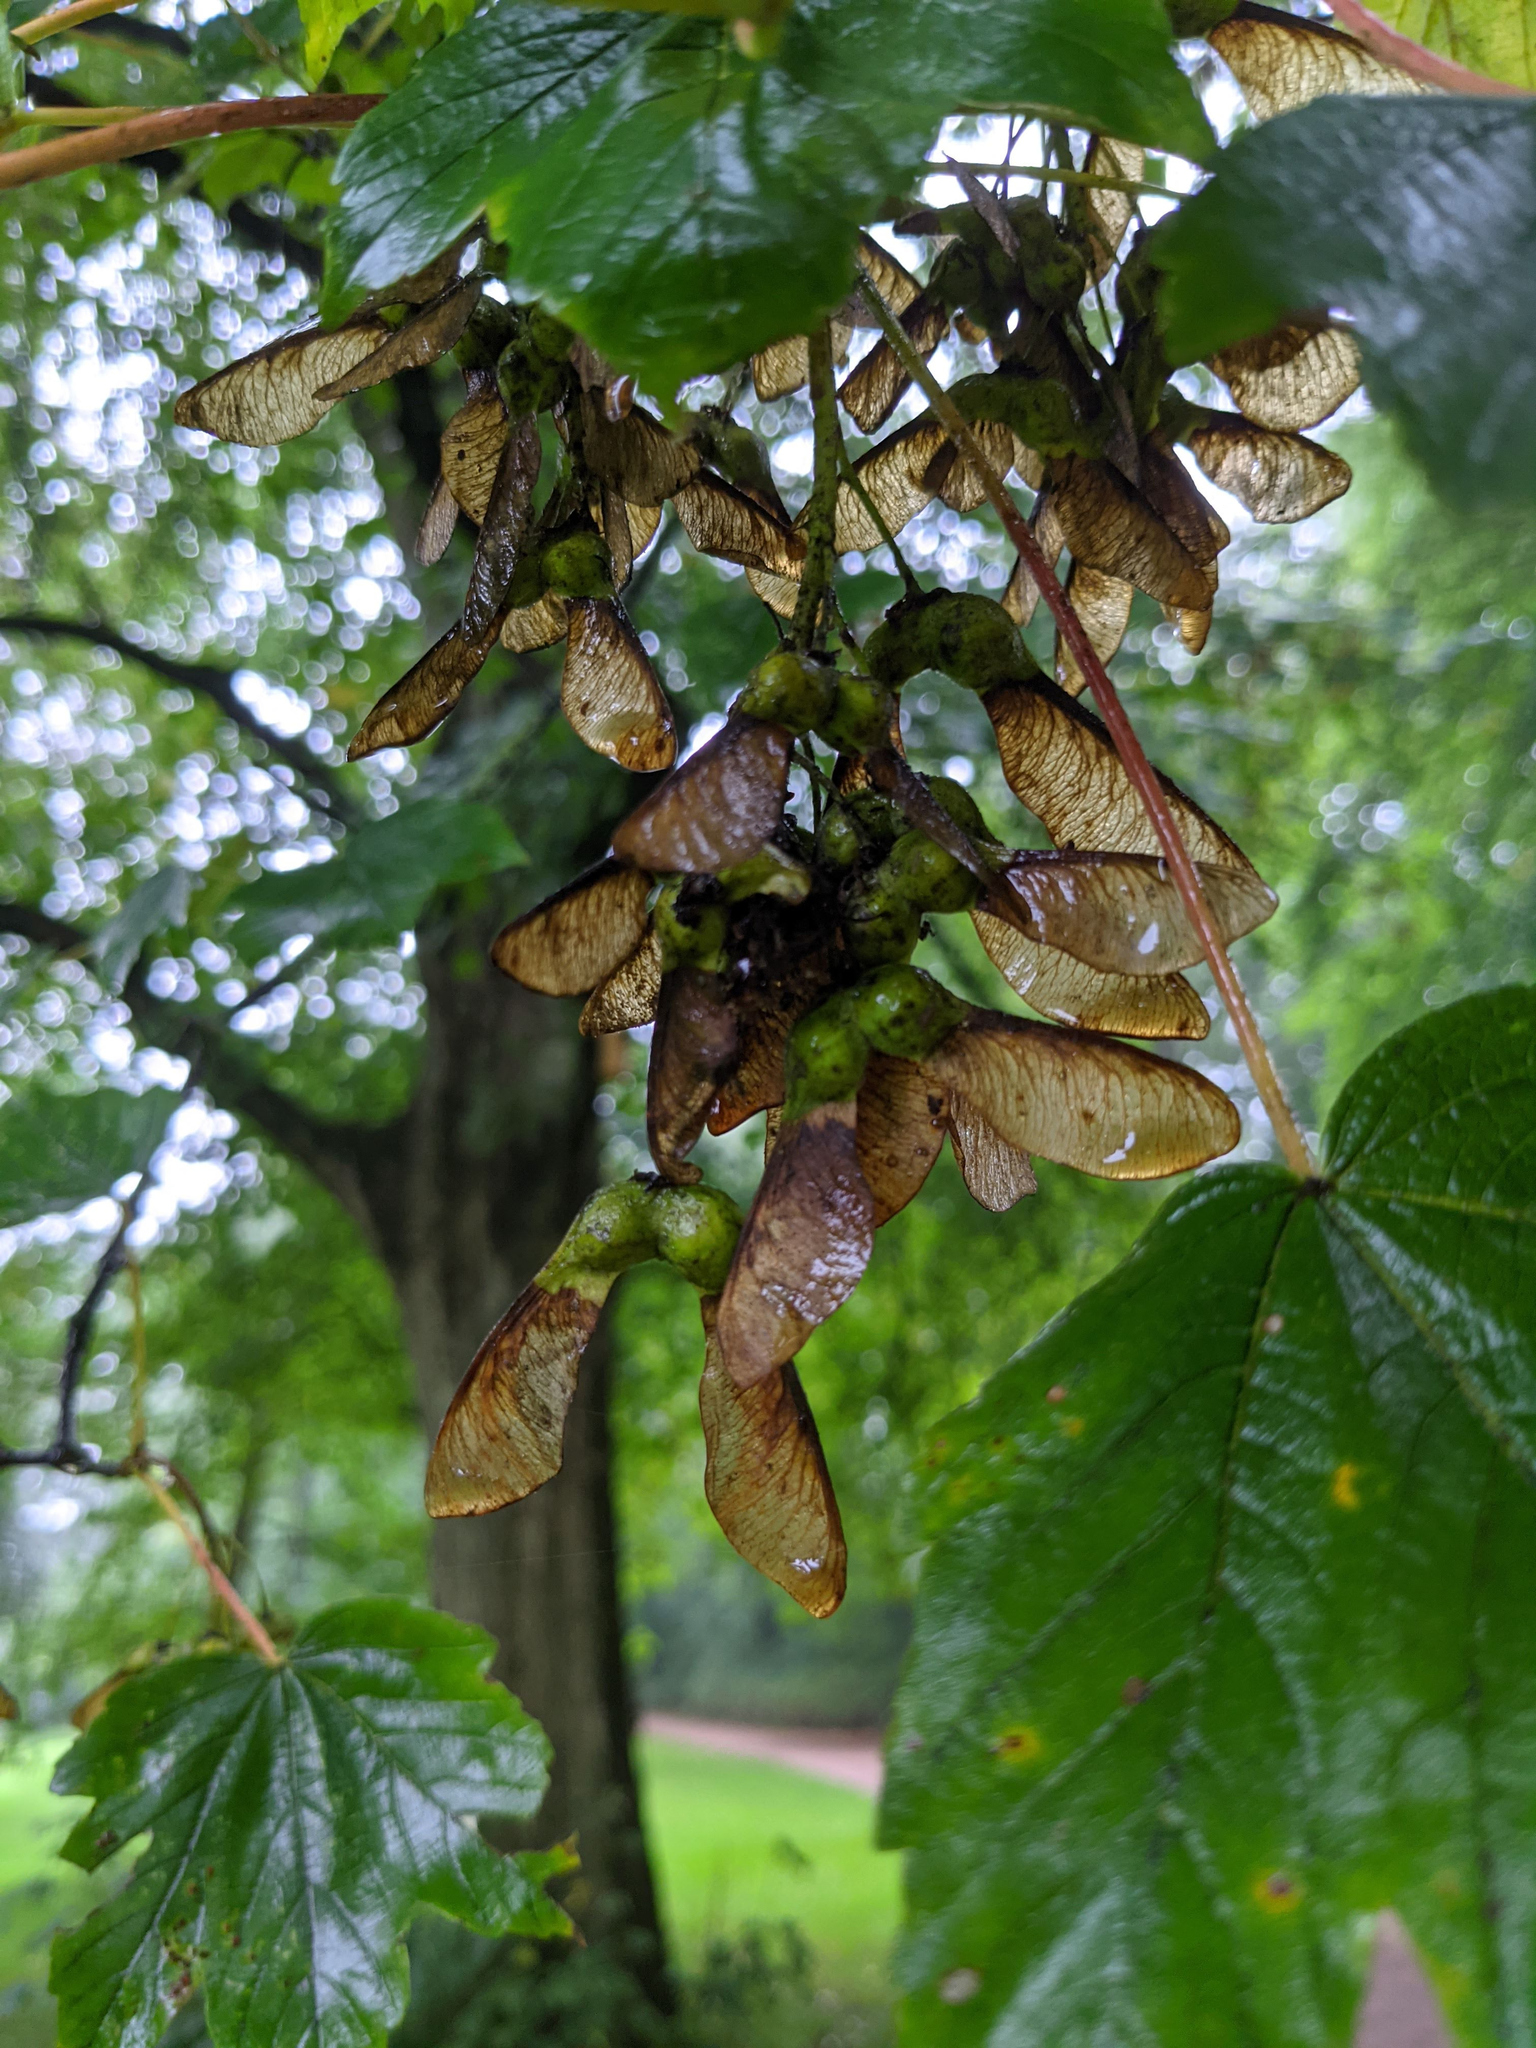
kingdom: Plantae
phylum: Tracheophyta
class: Magnoliopsida
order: Sapindales
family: Sapindaceae
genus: Acer
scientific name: Acer pseudoplatanus
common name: Sycamore
